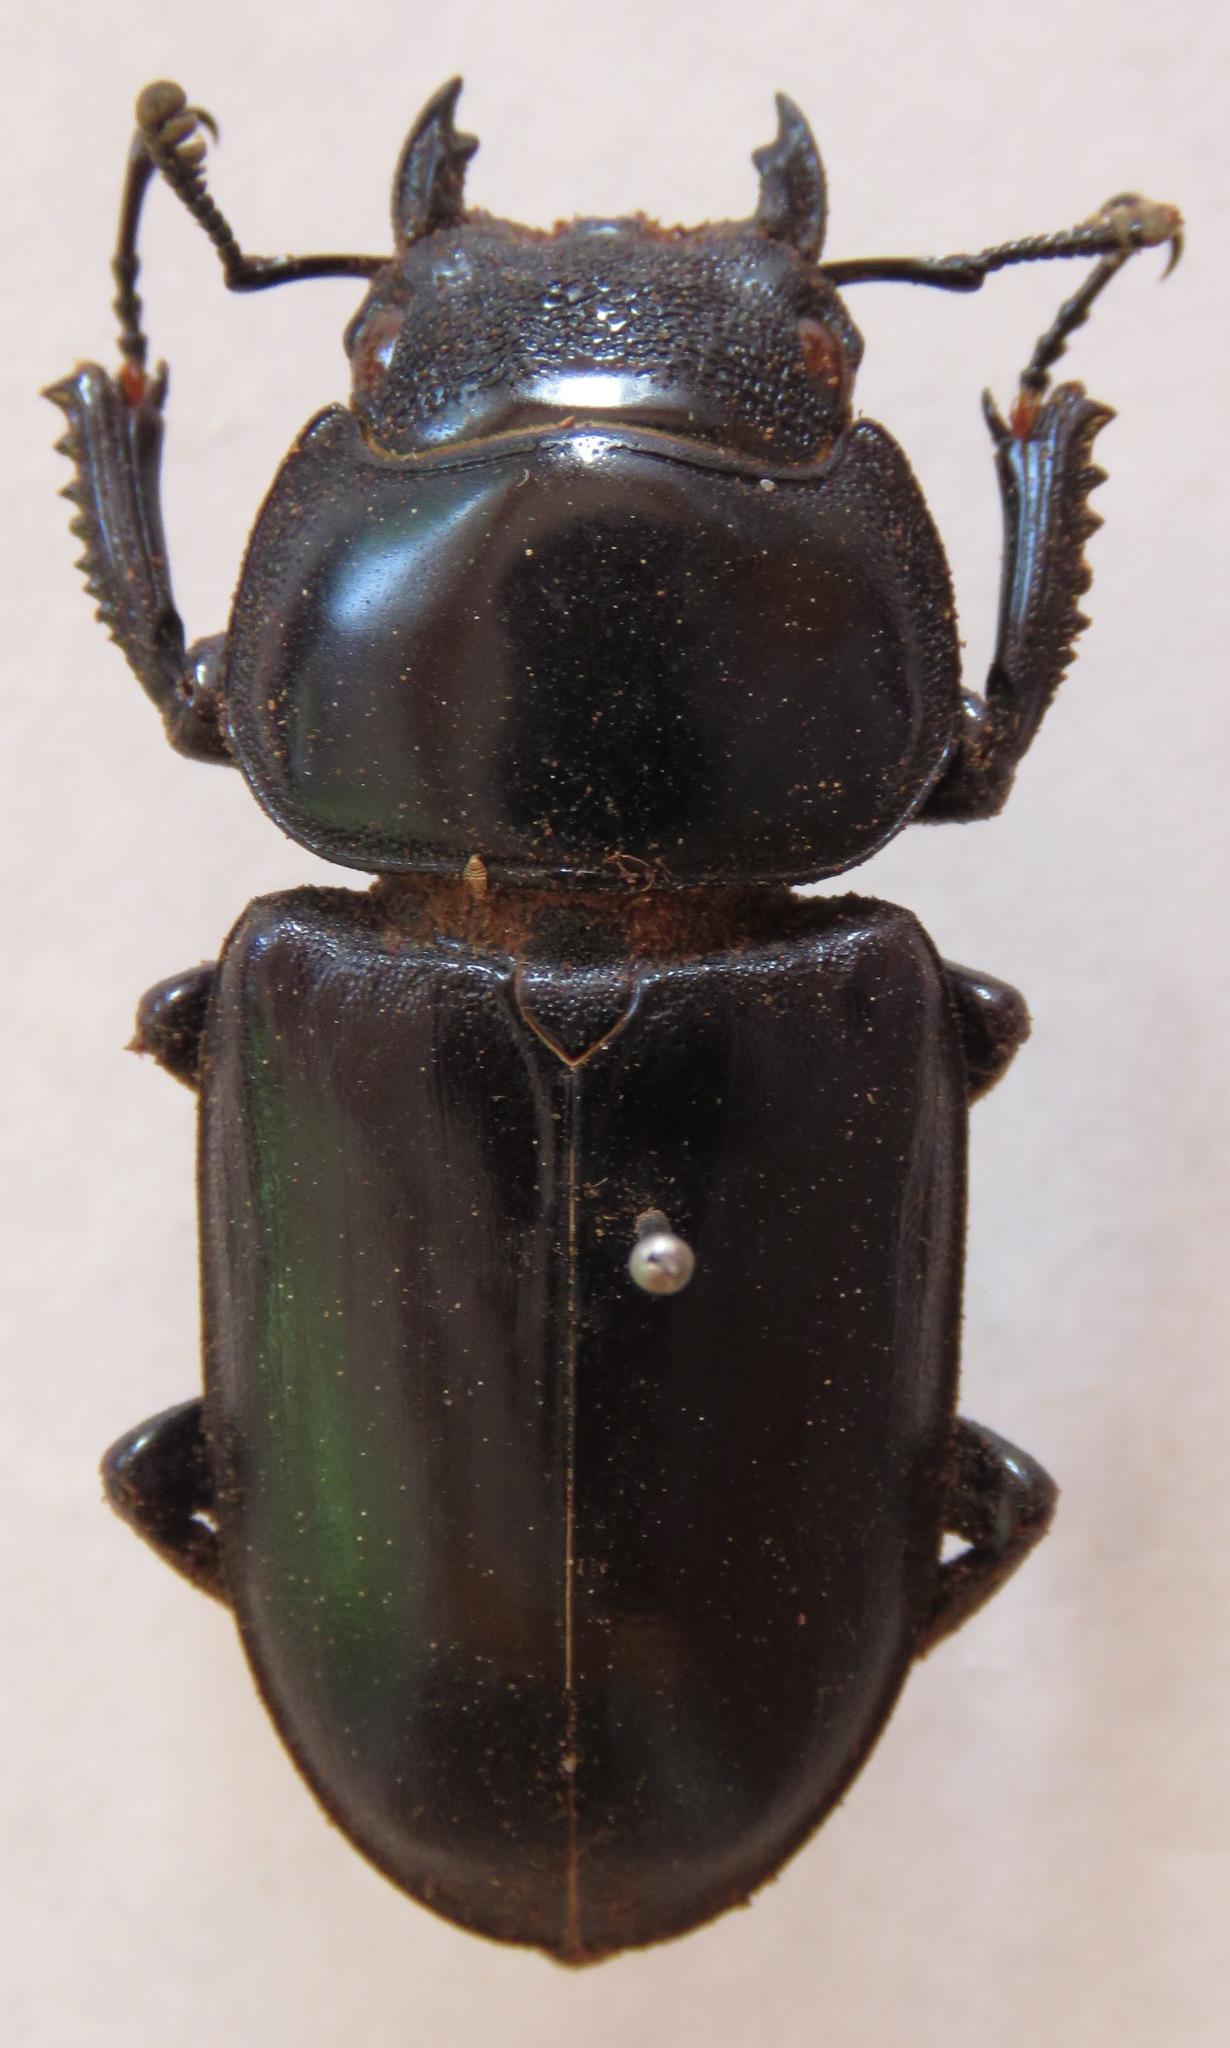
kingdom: Animalia
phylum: Arthropoda
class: Insecta
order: Coleoptera
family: Lucanidae
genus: Dorcus
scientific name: Dorcus antaeus
